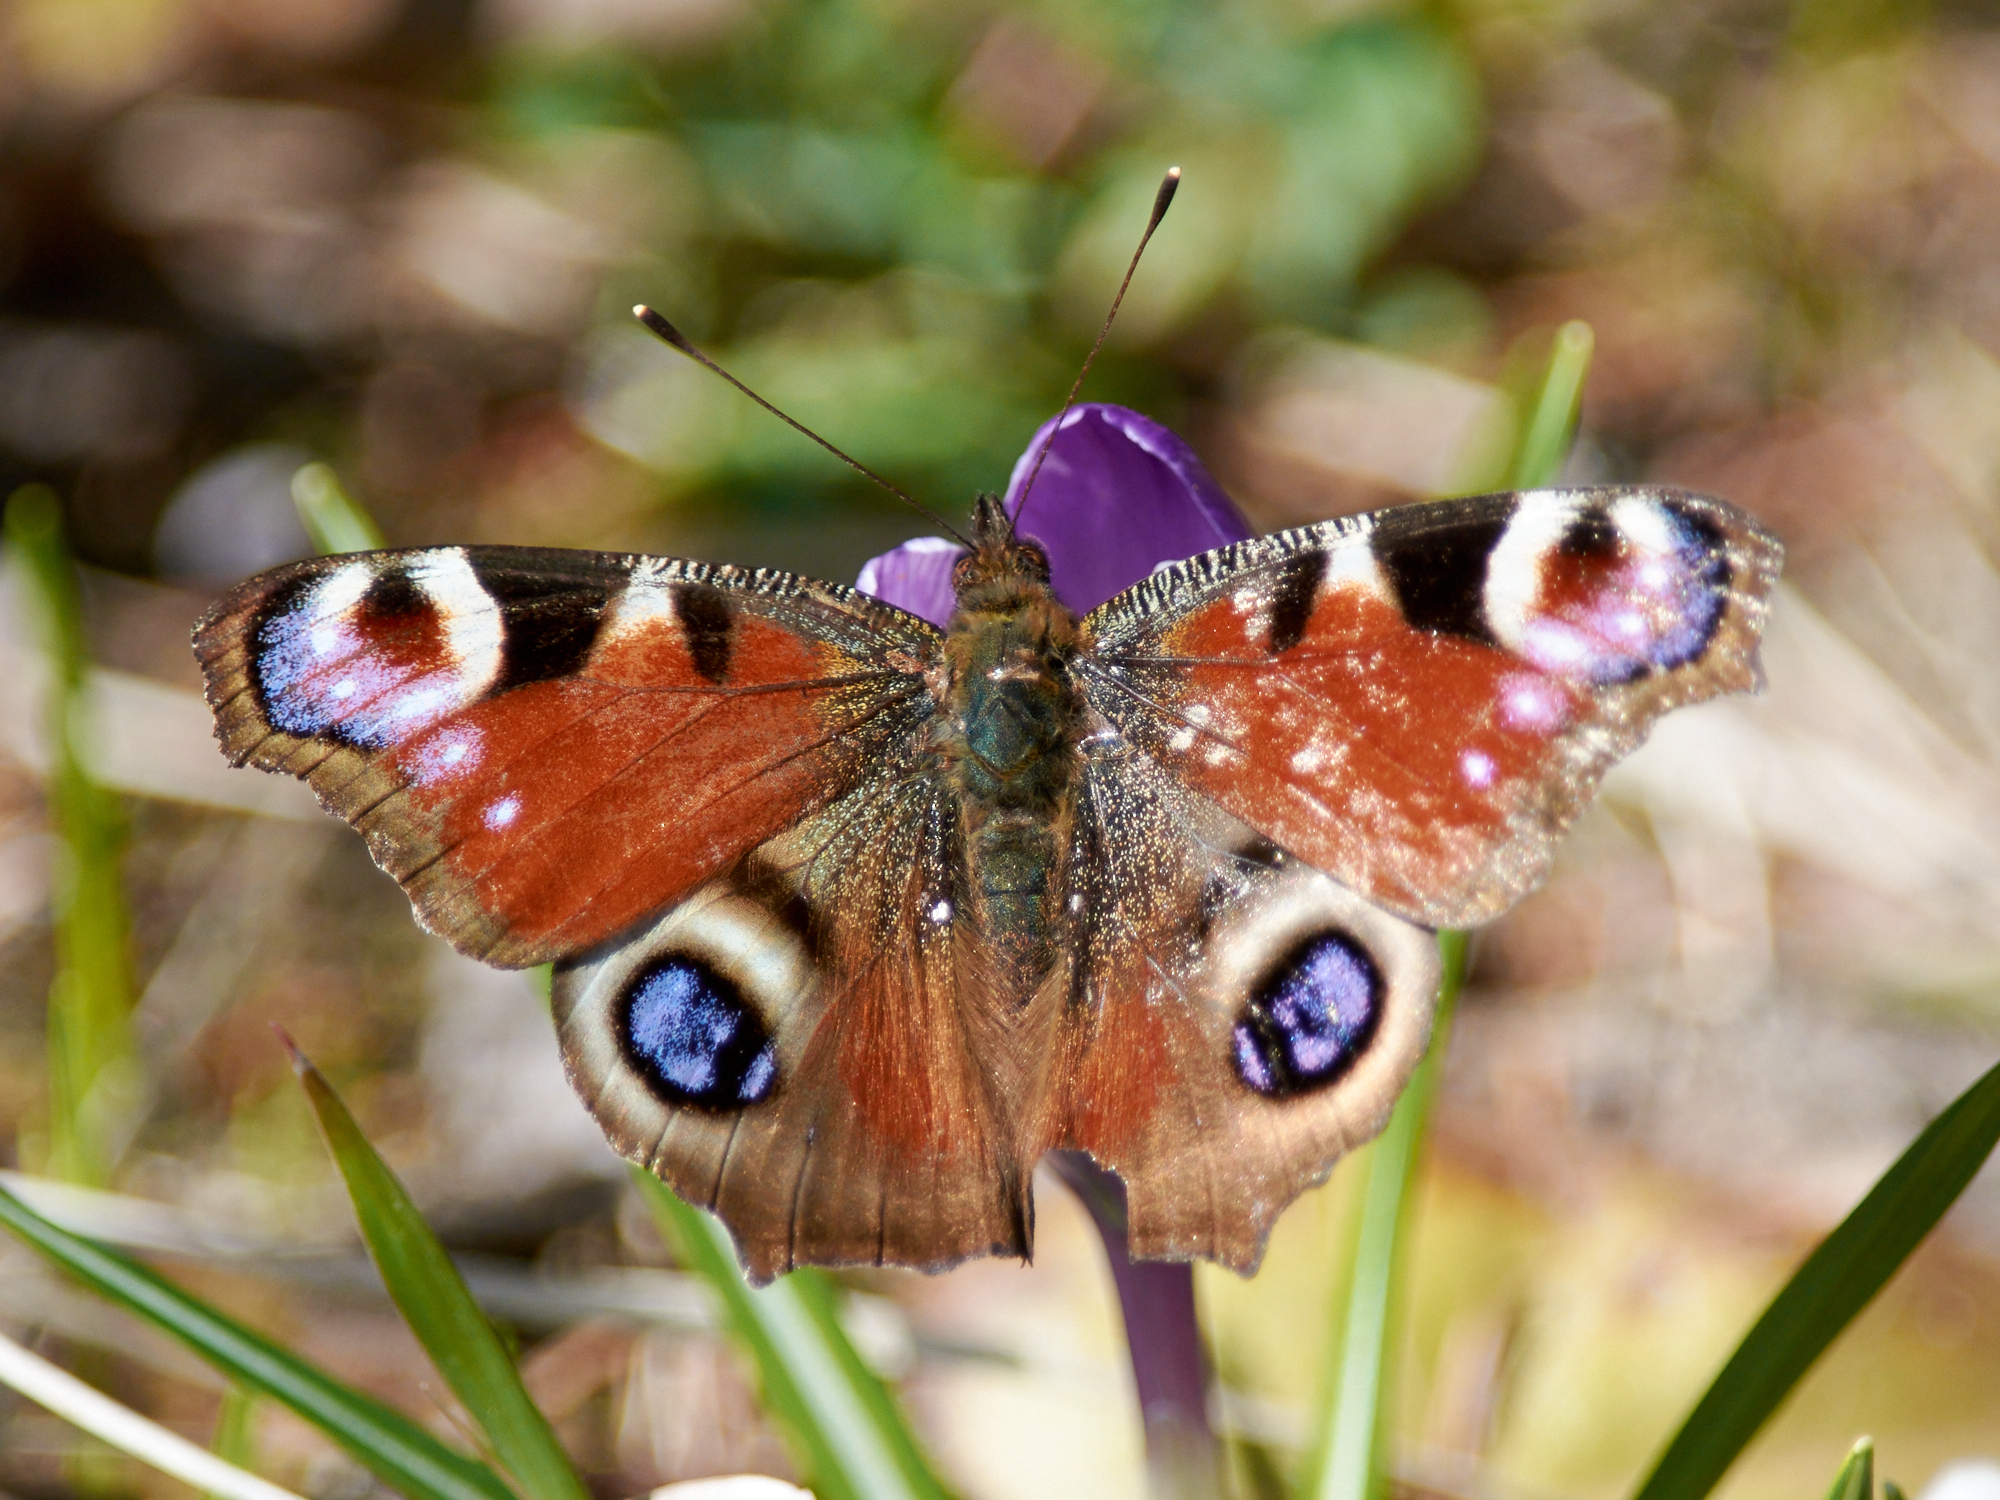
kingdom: Animalia
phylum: Arthropoda
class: Insecta
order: Lepidoptera
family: Nymphalidae
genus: Aglais
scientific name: Aglais io
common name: Peacock
